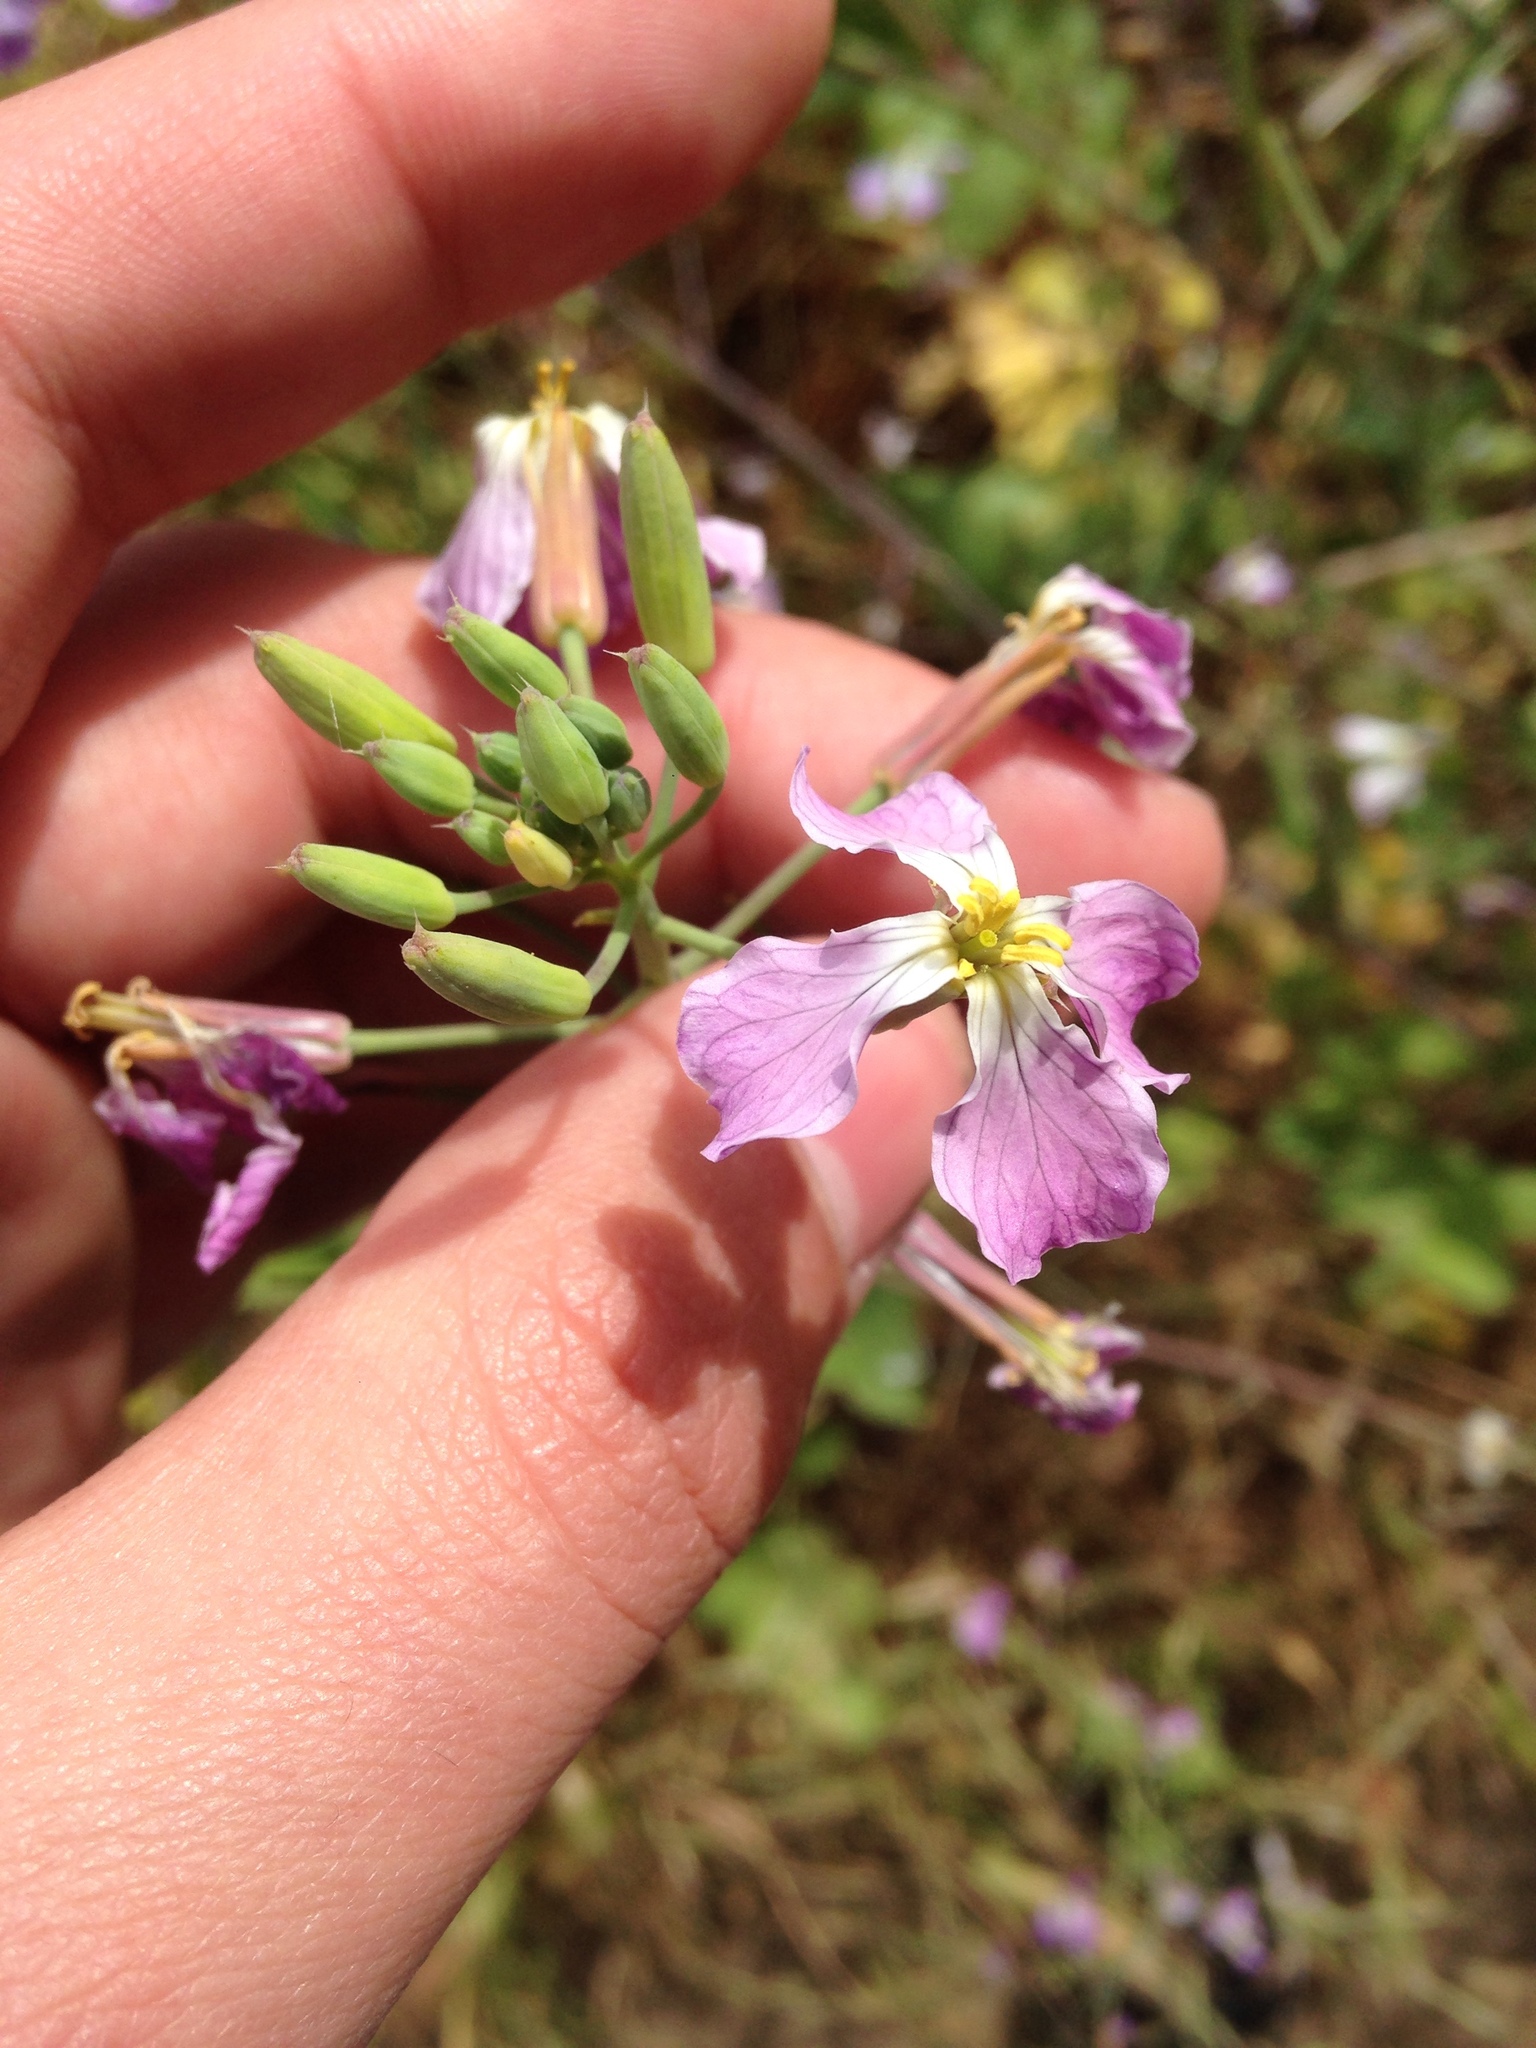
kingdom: Plantae
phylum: Tracheophyta
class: Magnoliopsida
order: Brassicales
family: Brassicaceae
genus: Raphanus
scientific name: Raphanus sativus
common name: Cultivated radish
